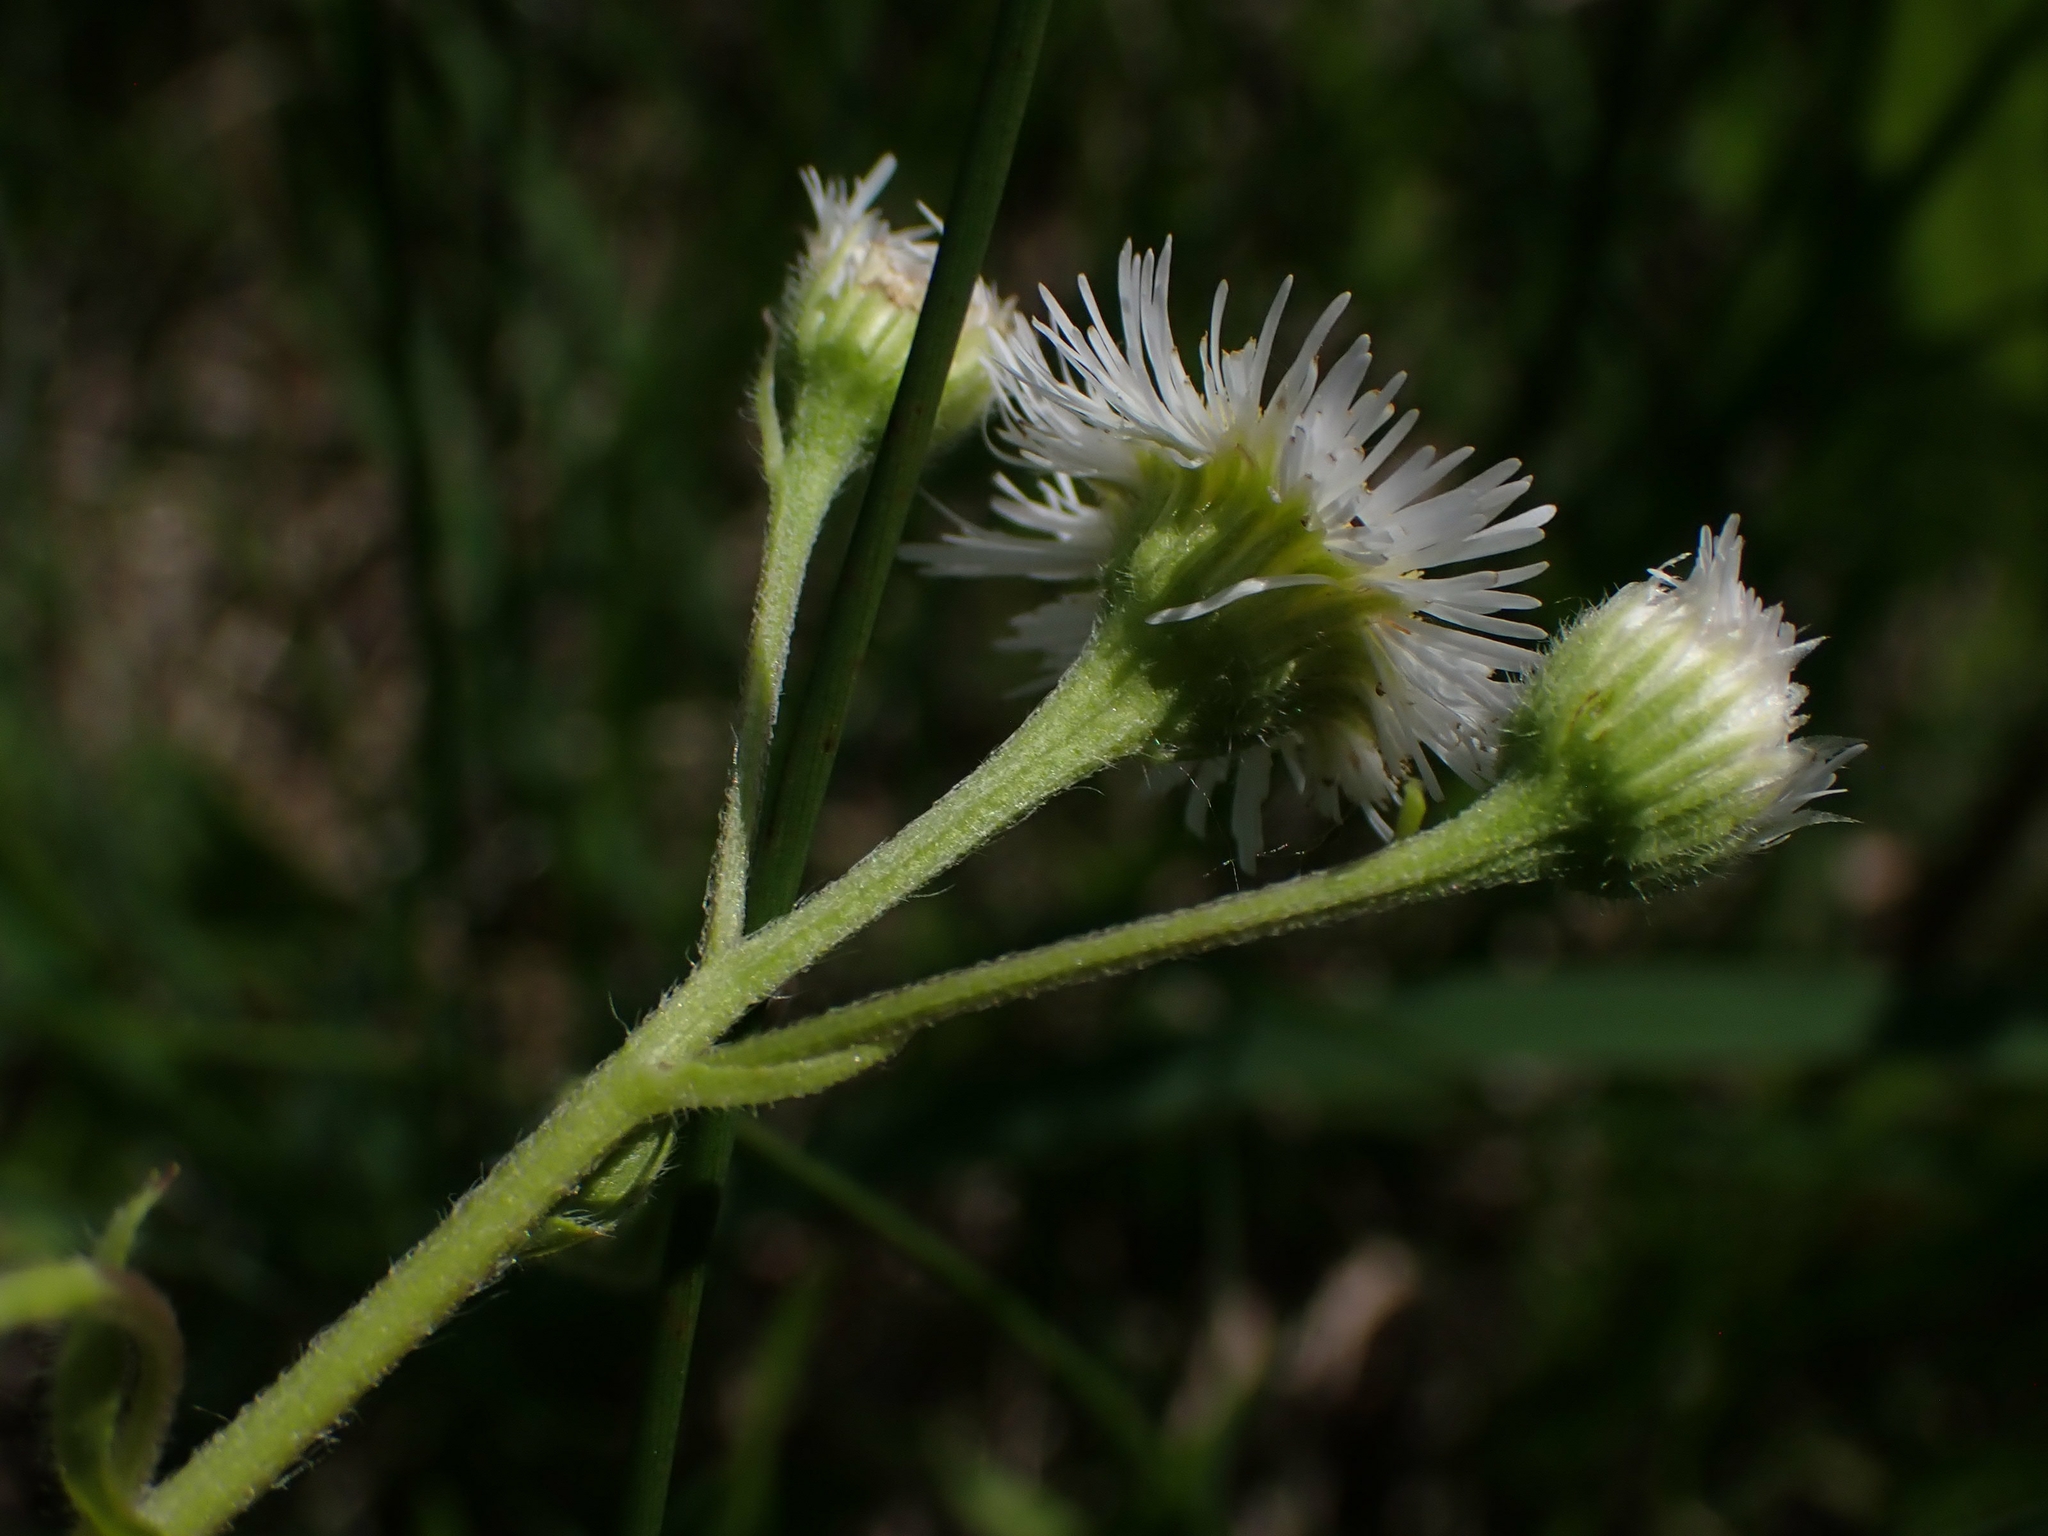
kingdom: Plantae
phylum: Tracheophyta
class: Magnoliopsida
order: Asterales
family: Asteraceae
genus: Erigeron
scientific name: Erigeron strigosus
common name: Common eastern fleabane
